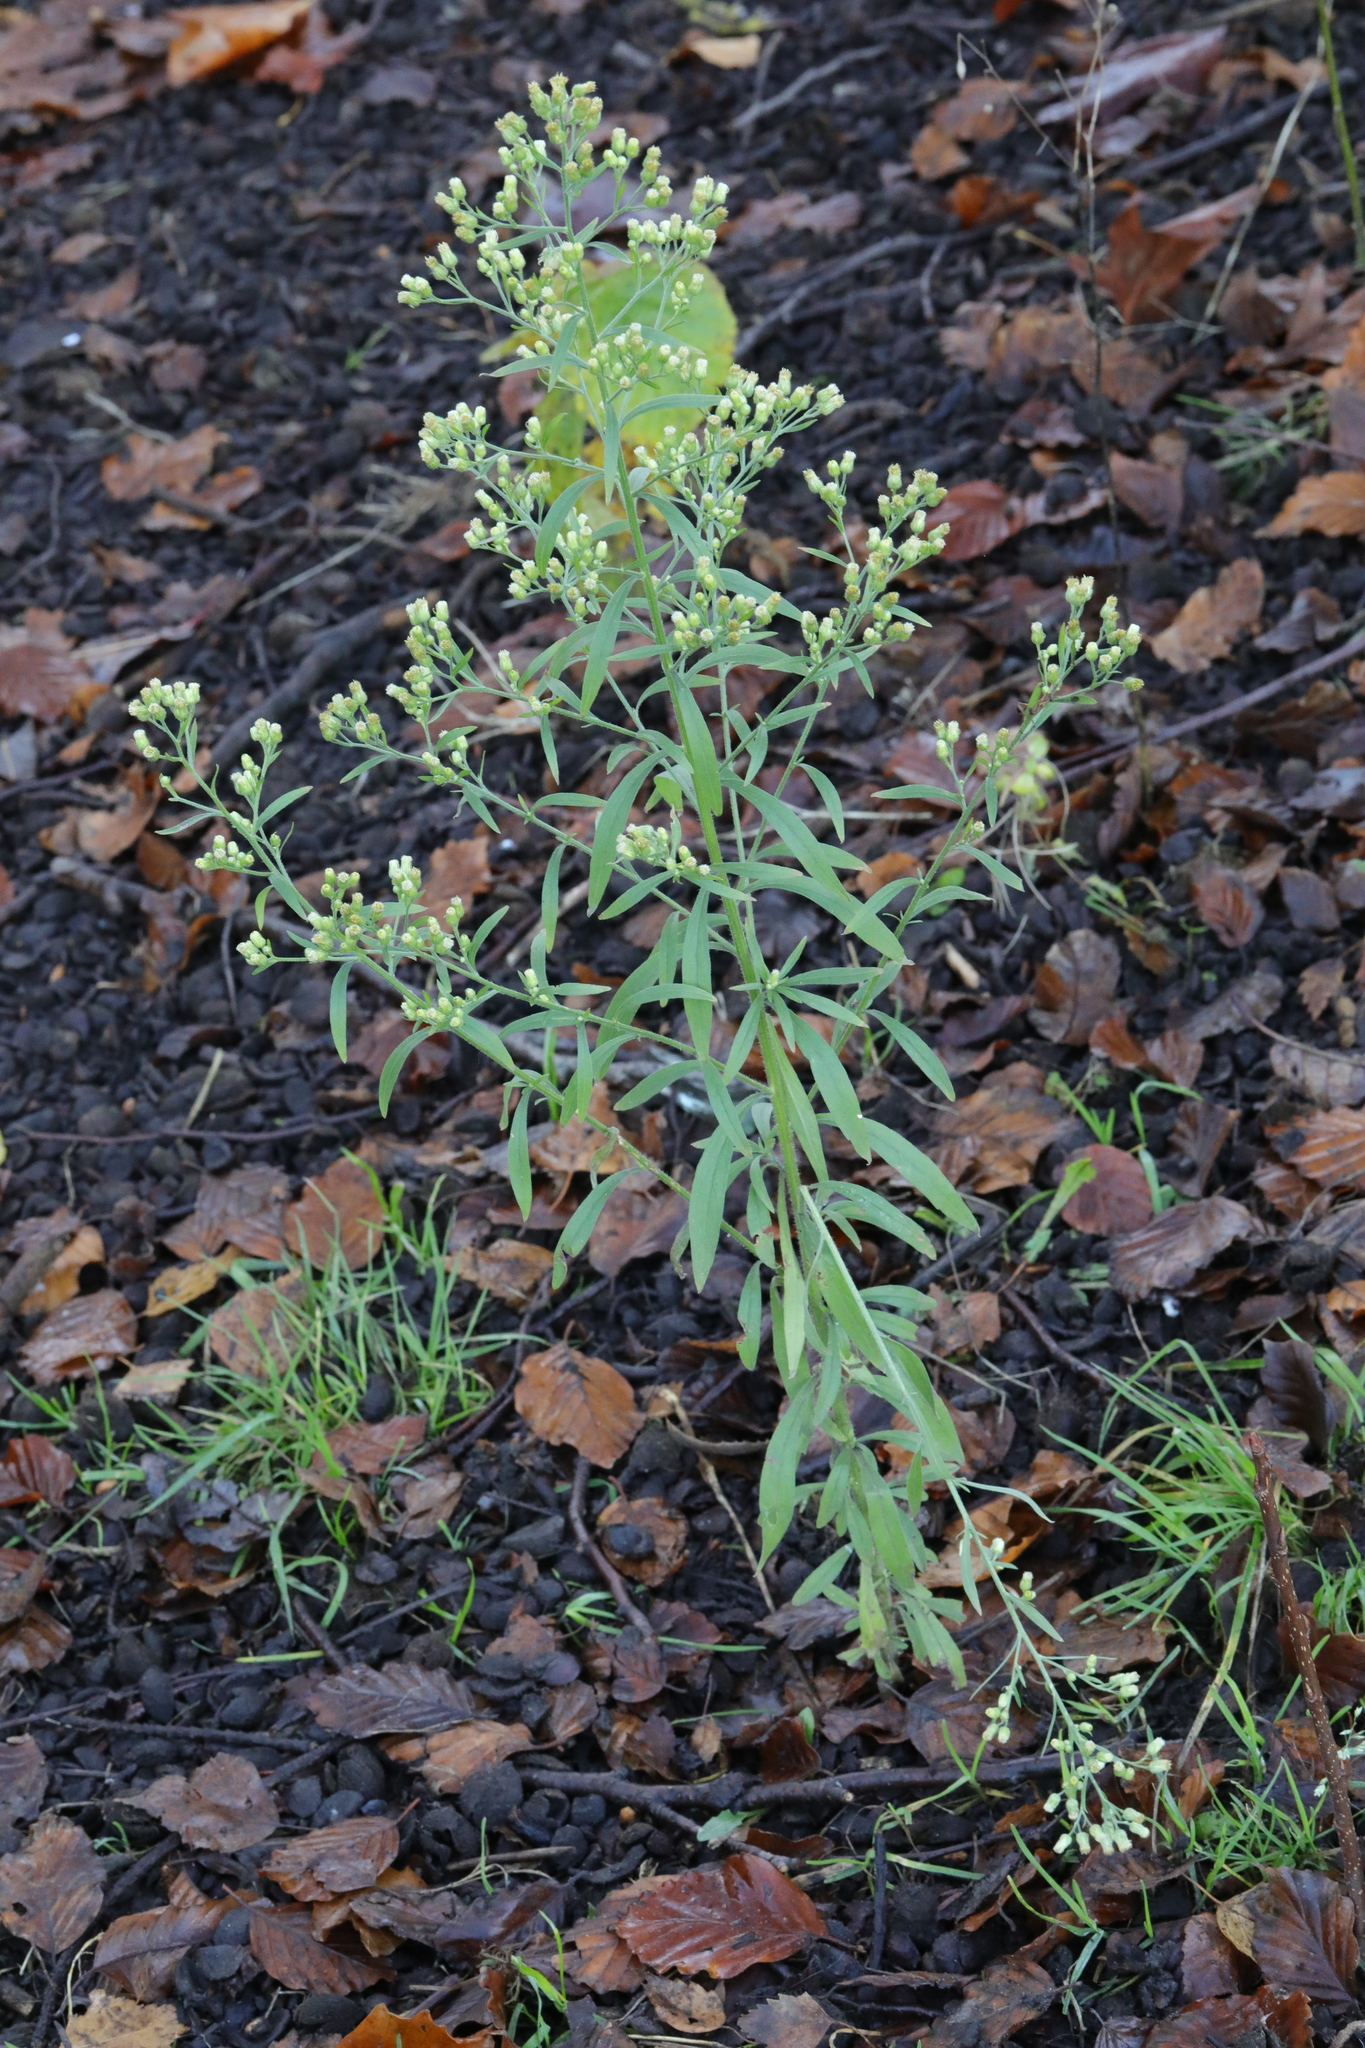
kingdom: Plantae
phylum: Tracheophyta
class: Magnoliopsida
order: Asterales
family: Asteraceae
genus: Erigeron
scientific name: Erigeron canadensis
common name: Canadian fleabane
